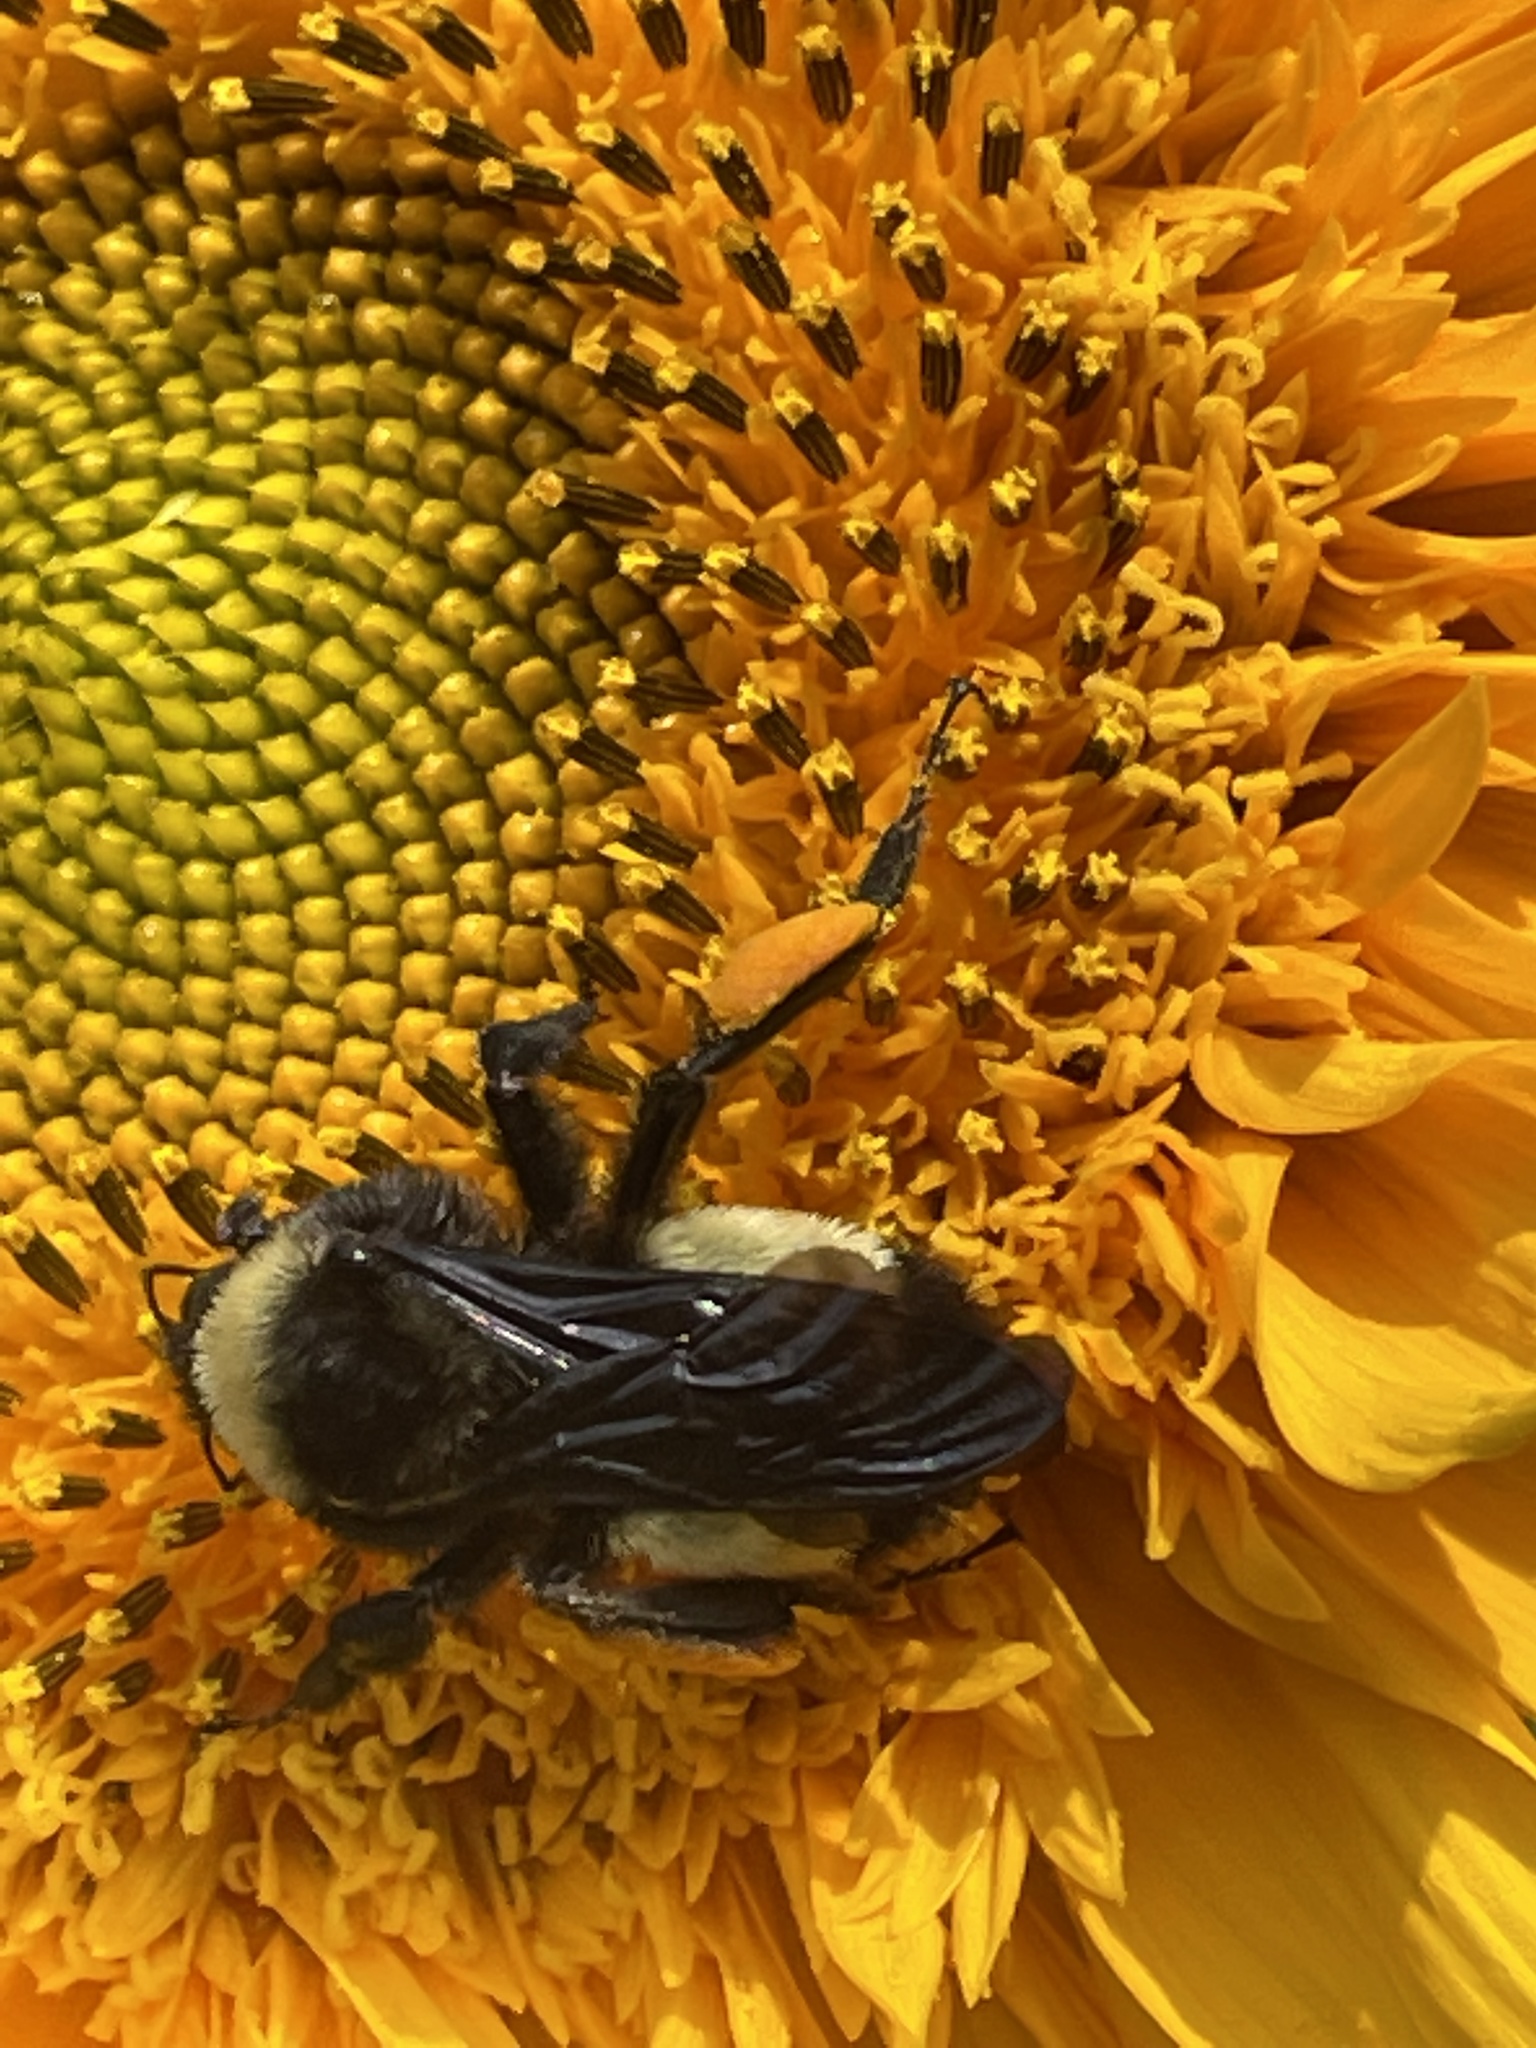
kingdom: Animalia
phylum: Arthropoda
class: Insecta
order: Hymenoptera
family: Apidae
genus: Bombus
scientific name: Bombus pensylvanicus
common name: Bumble bee
